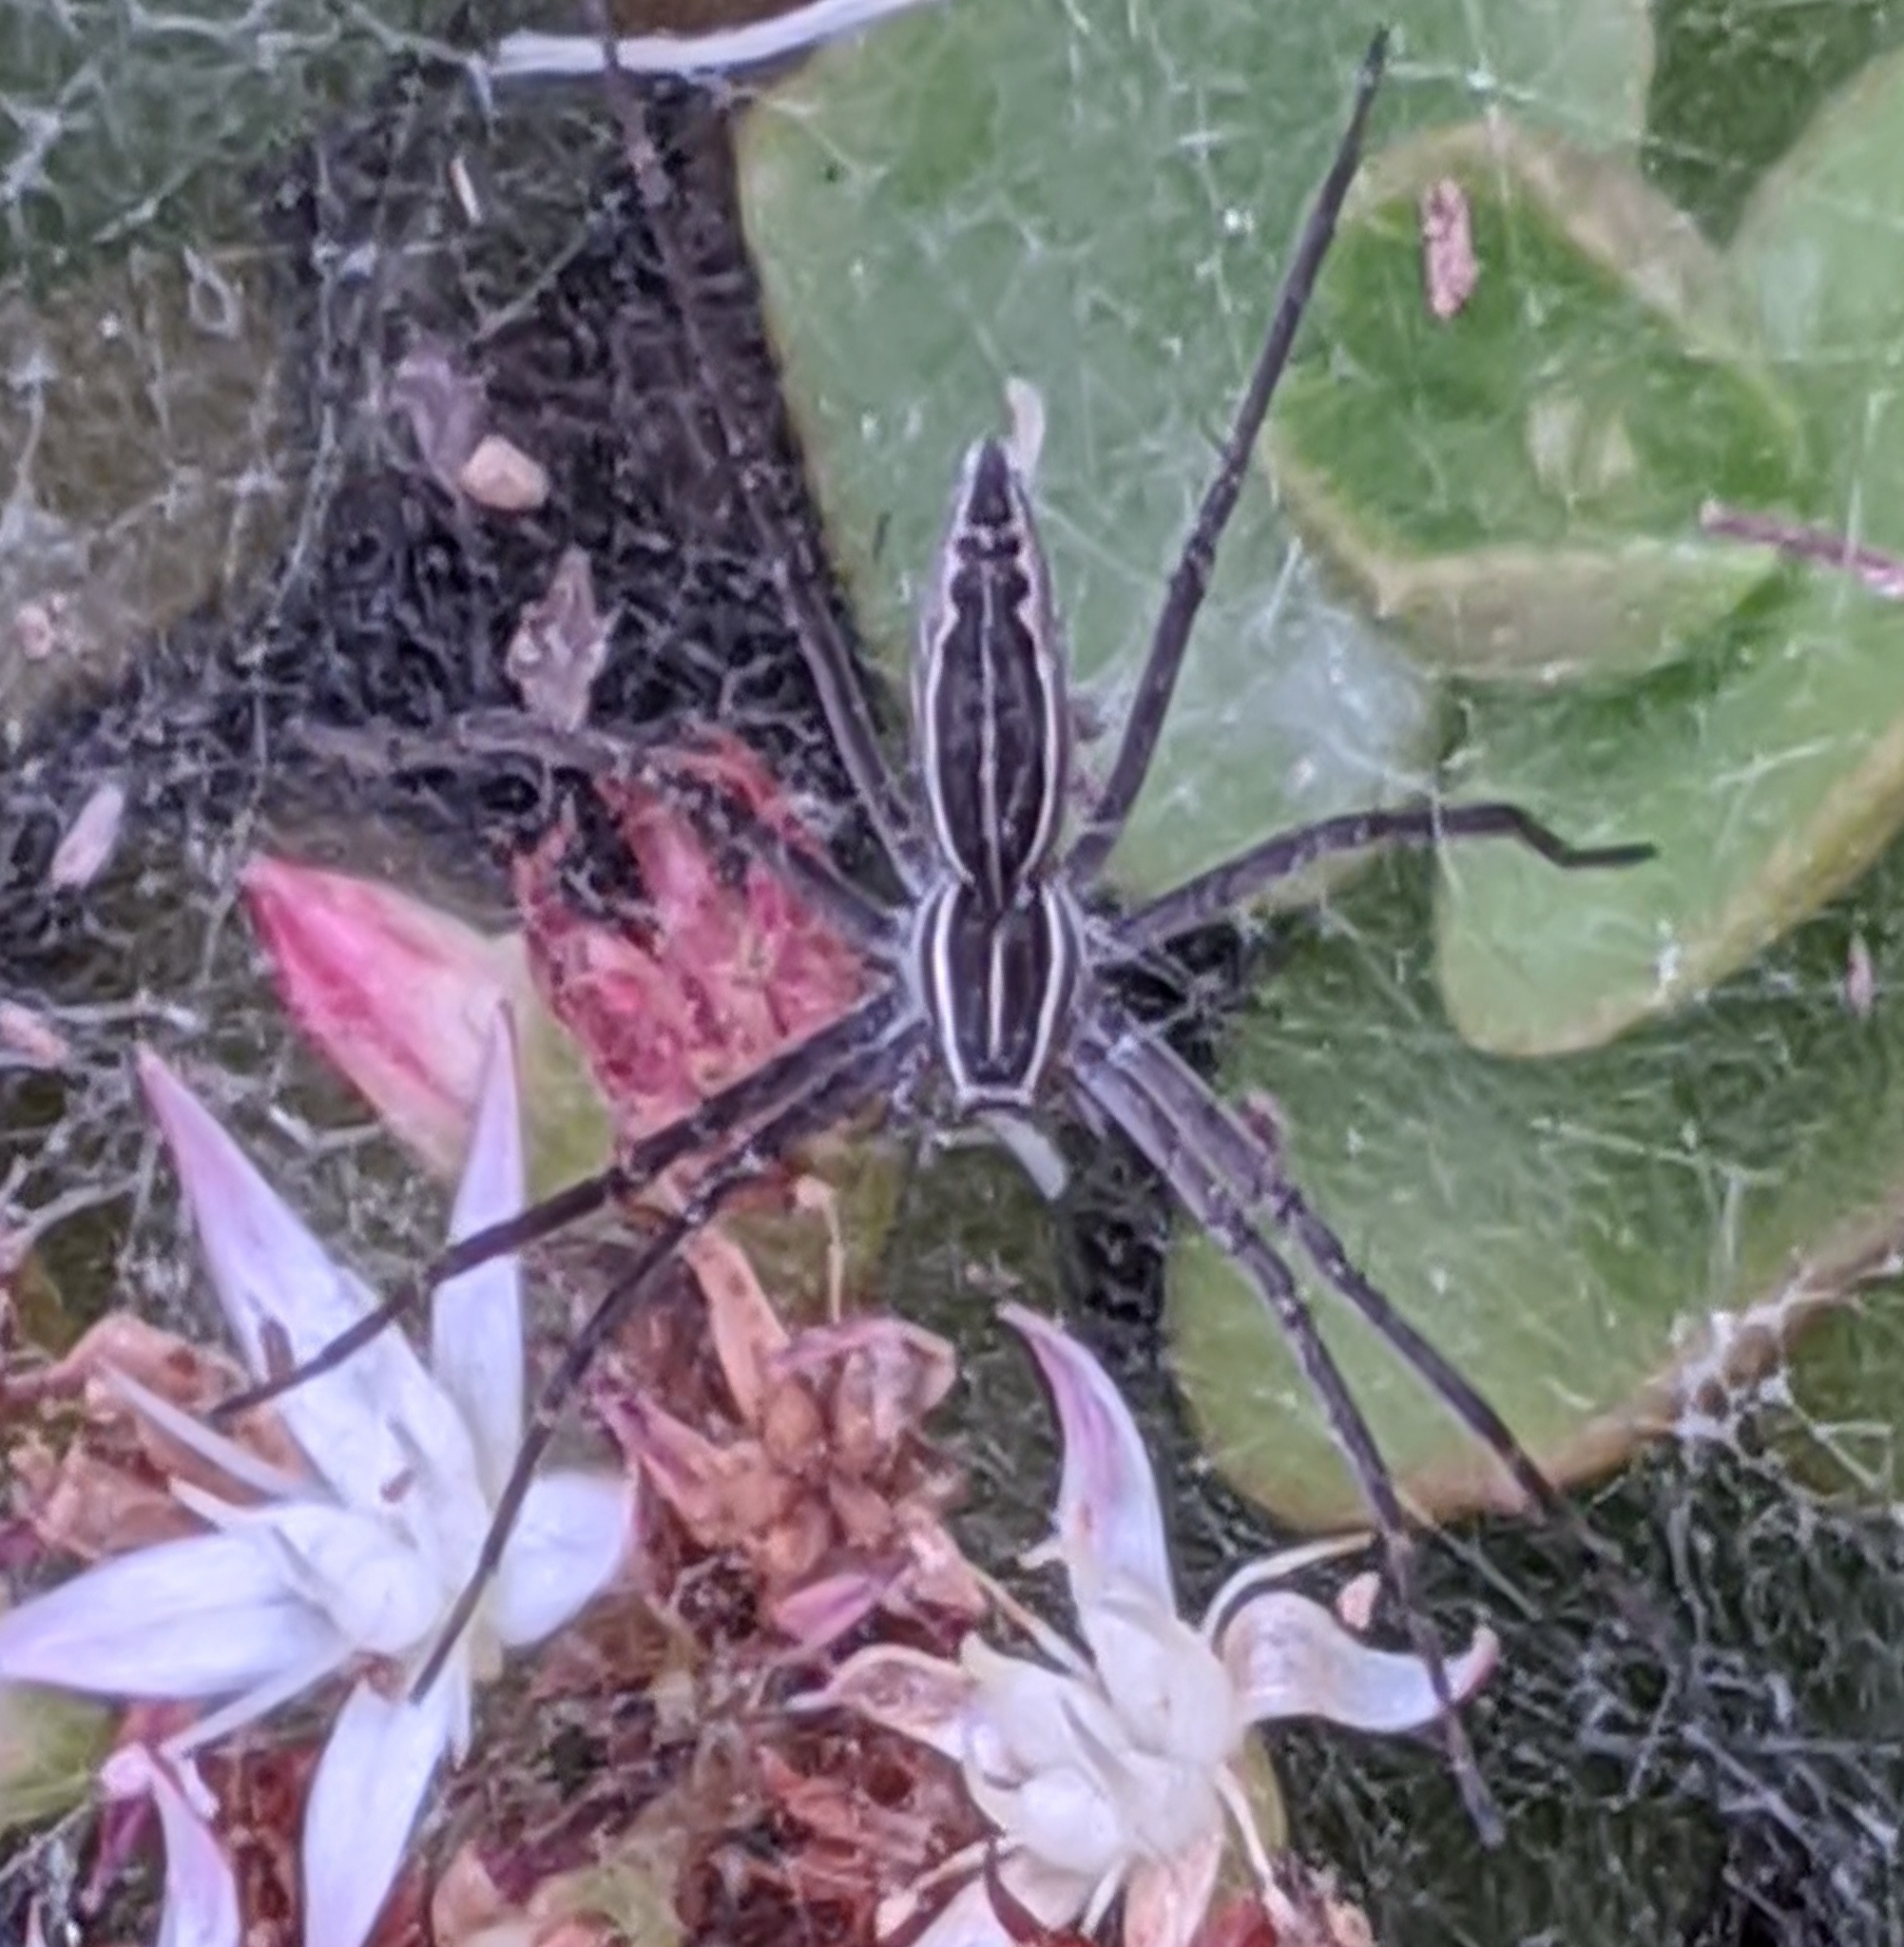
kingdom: Animalia
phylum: Arthropoda
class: Arachnida
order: Araneae
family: Pisauridae
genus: Euprosthenopsis
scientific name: Euprosthenopsis pulchella
